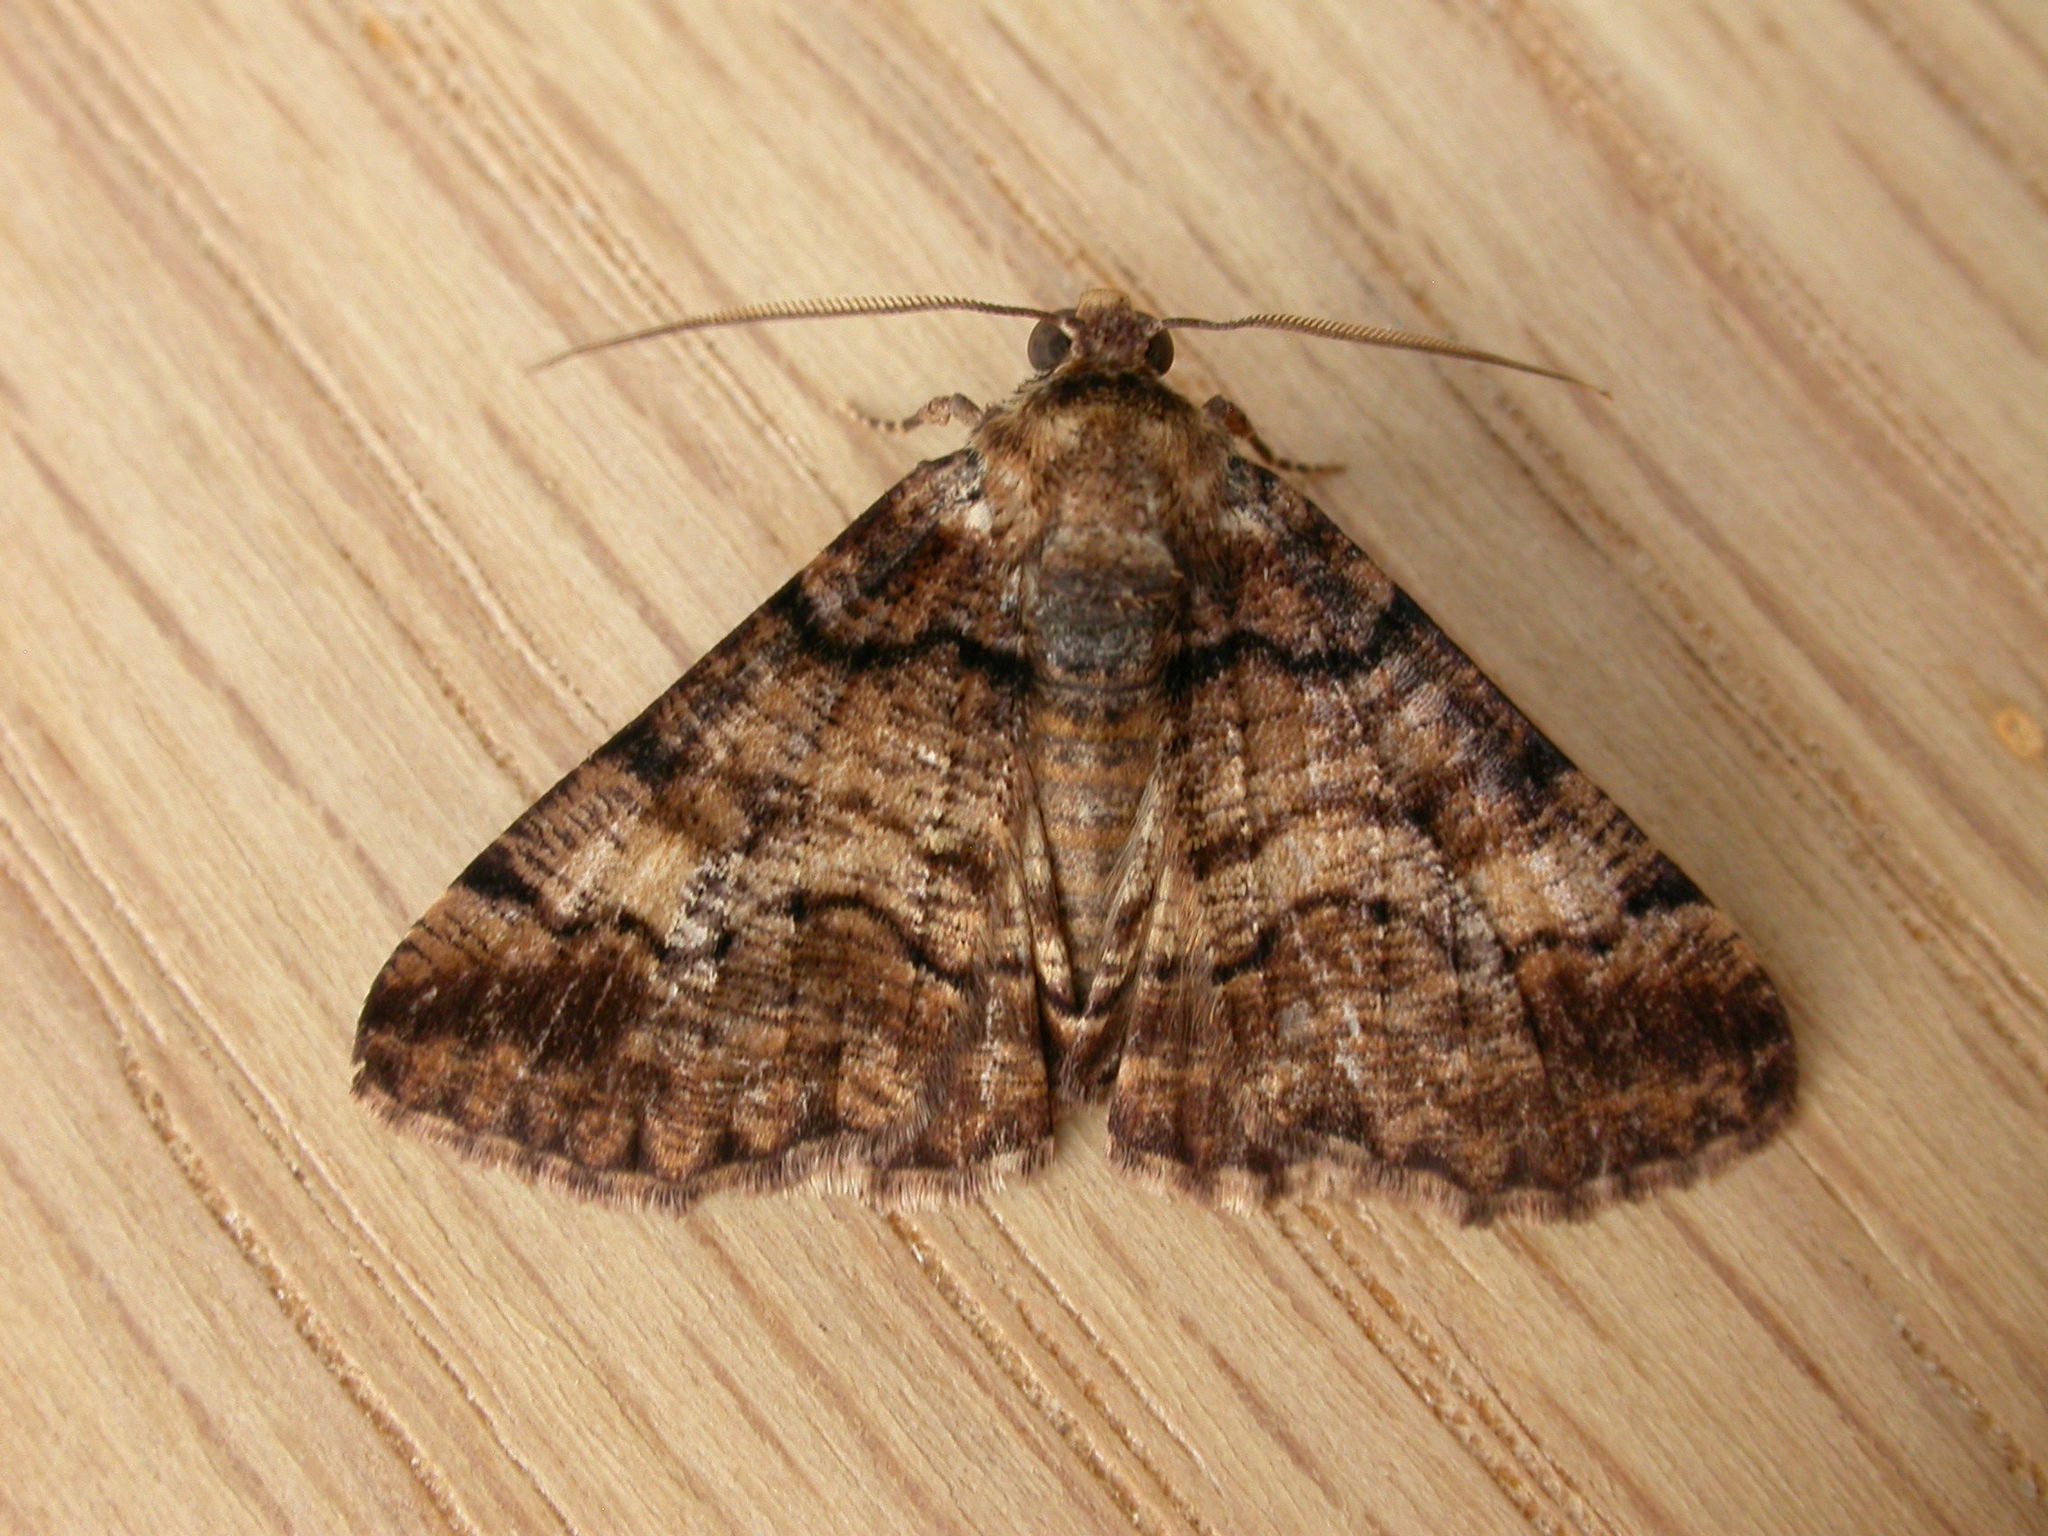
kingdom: Animalia
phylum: Arthropoda
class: Insecta
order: Lepidoptera
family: Geometridae
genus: Cryphaea
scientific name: Cryphaea xylina
